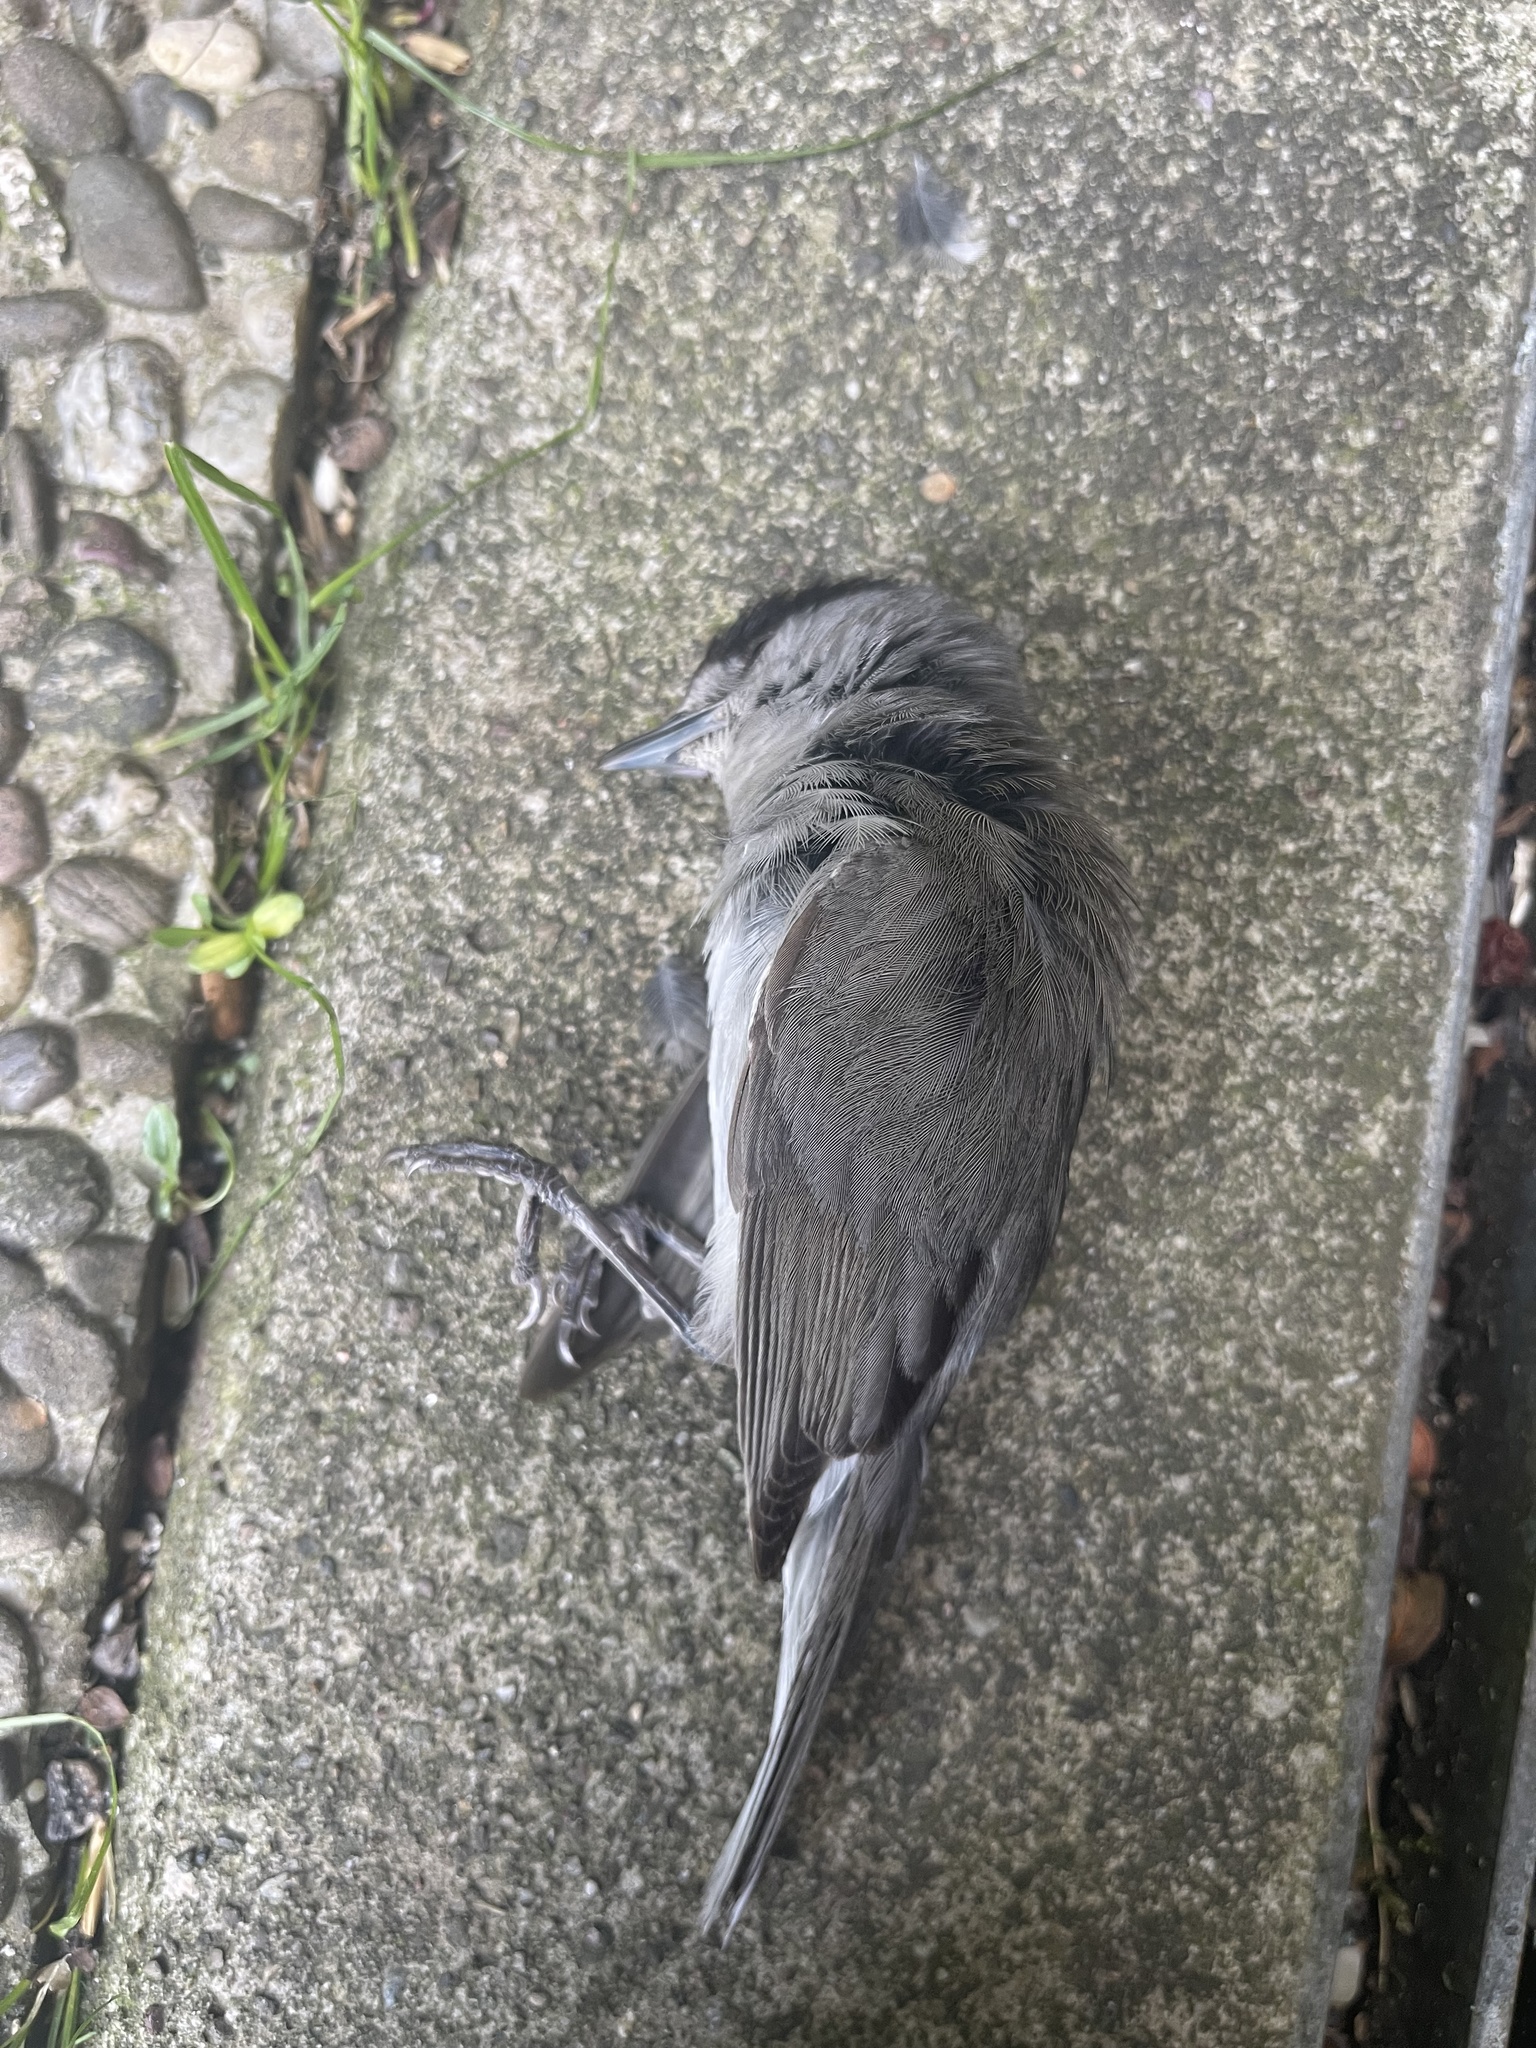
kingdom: Animalia
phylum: Chordata
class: Aves
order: Passeriformes
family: Sylviidae
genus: Sylvia
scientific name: Sylvia atricapilla
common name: Eurasian blackcap
